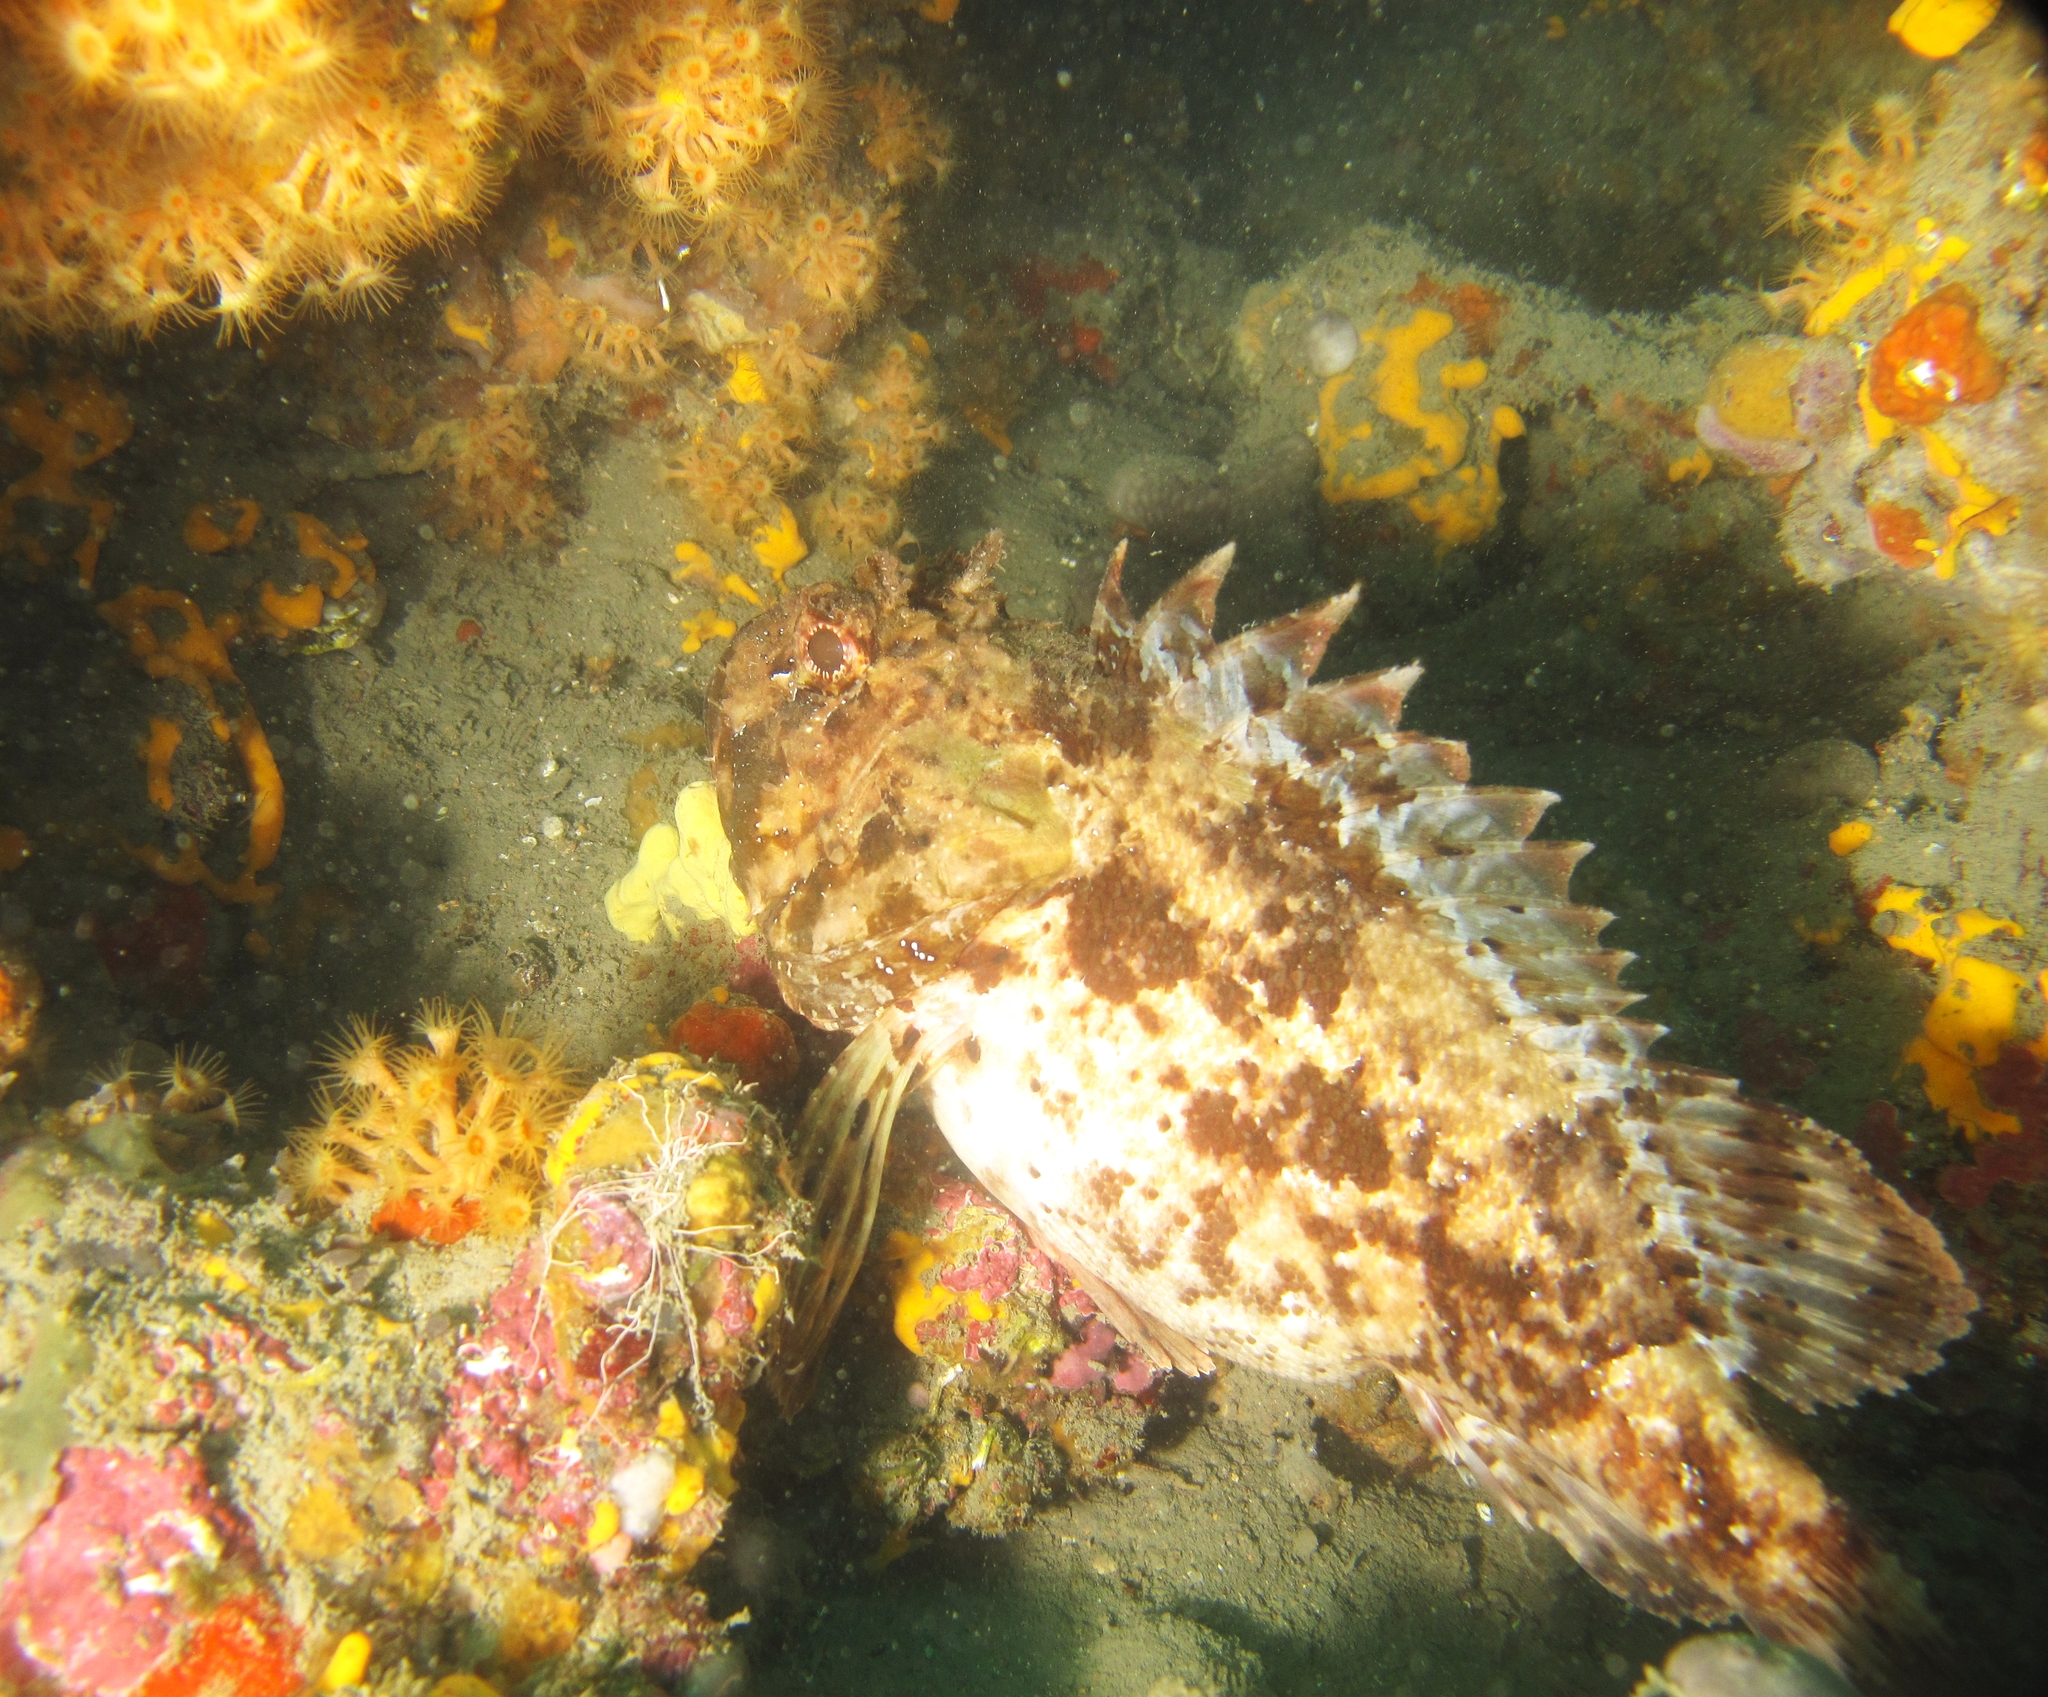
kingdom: Animalia
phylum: Chordata
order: Scorpaeniformes
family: Scorpaenidae
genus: Scorpaena
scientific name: Scorpaena porcus
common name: Black scorpionfish
